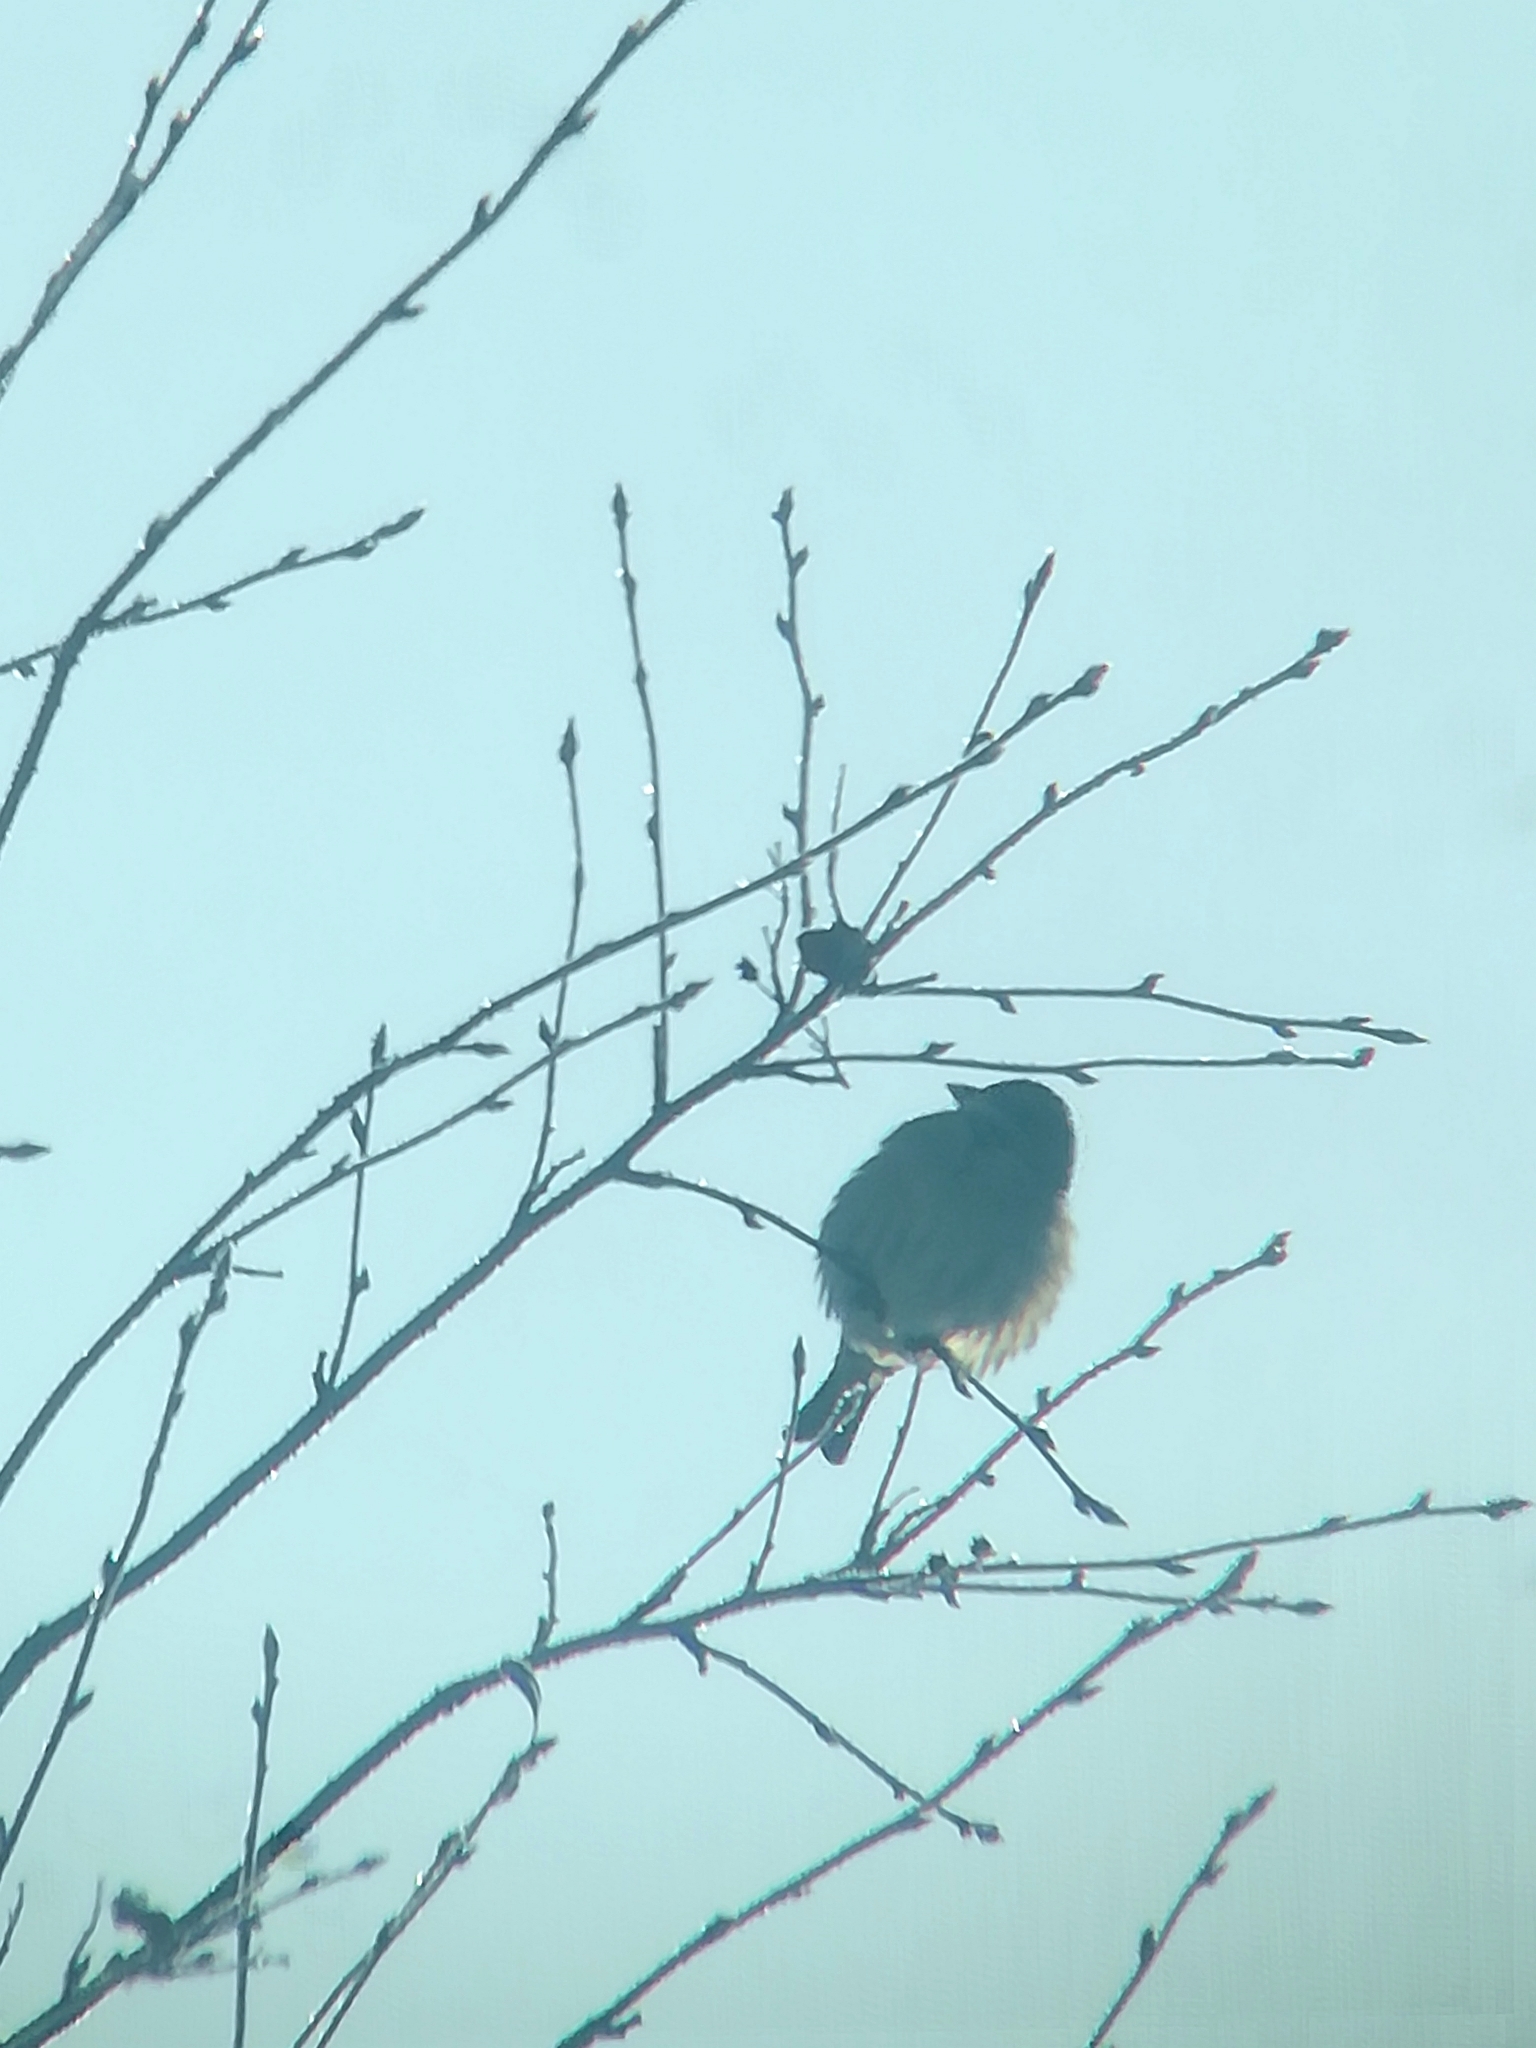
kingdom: Animalia
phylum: Chordata
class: Aves
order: Passeriformes
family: Passeridae
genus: Passer
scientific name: Passer domesticus
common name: House sparrow
